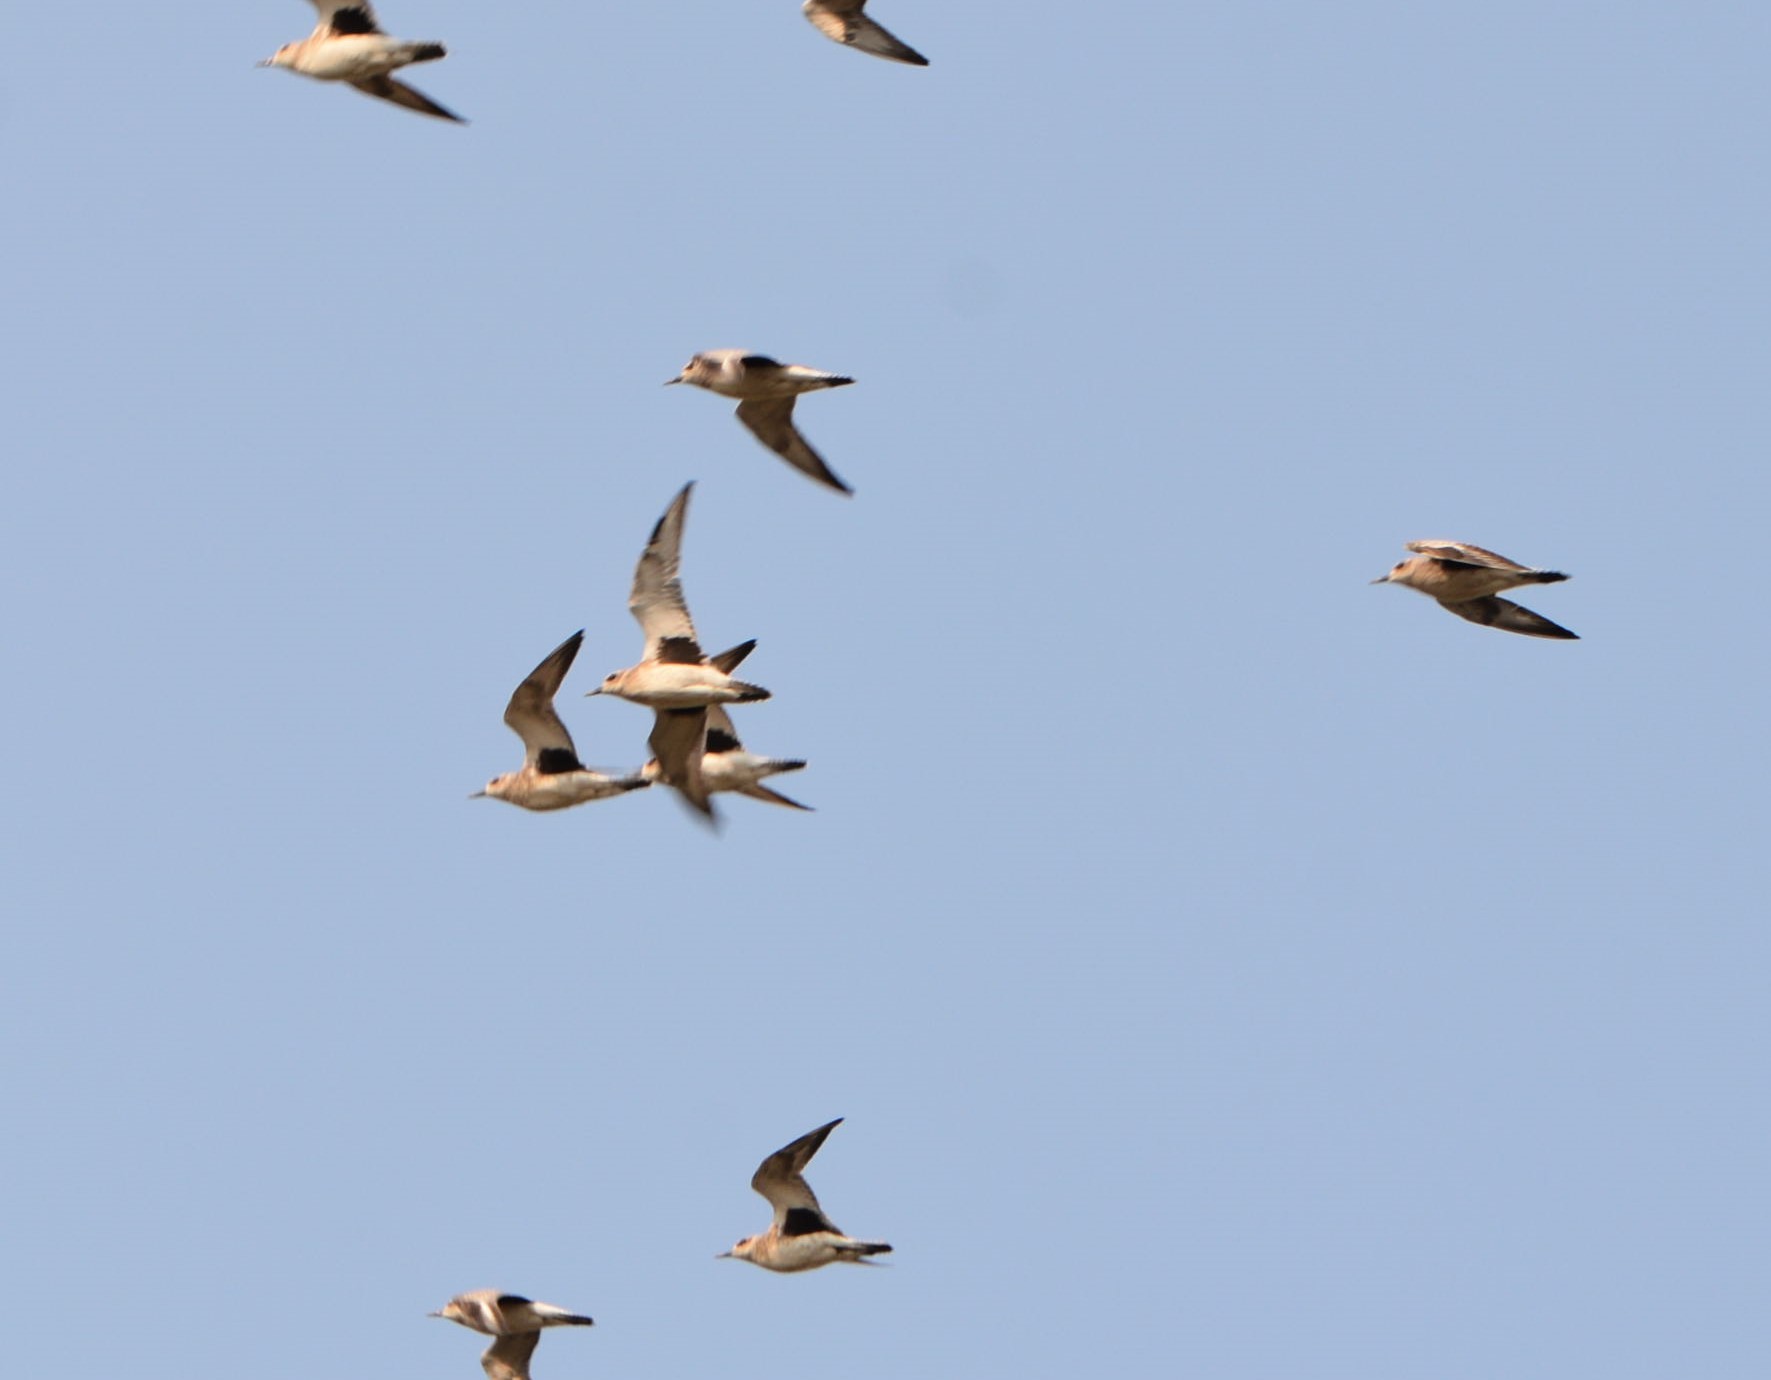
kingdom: Animalia
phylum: Chordata
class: Aves
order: Charadriiformes
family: Charadriidae
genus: Pluvialis
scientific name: Pluvialis squatarola
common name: Grey plover
